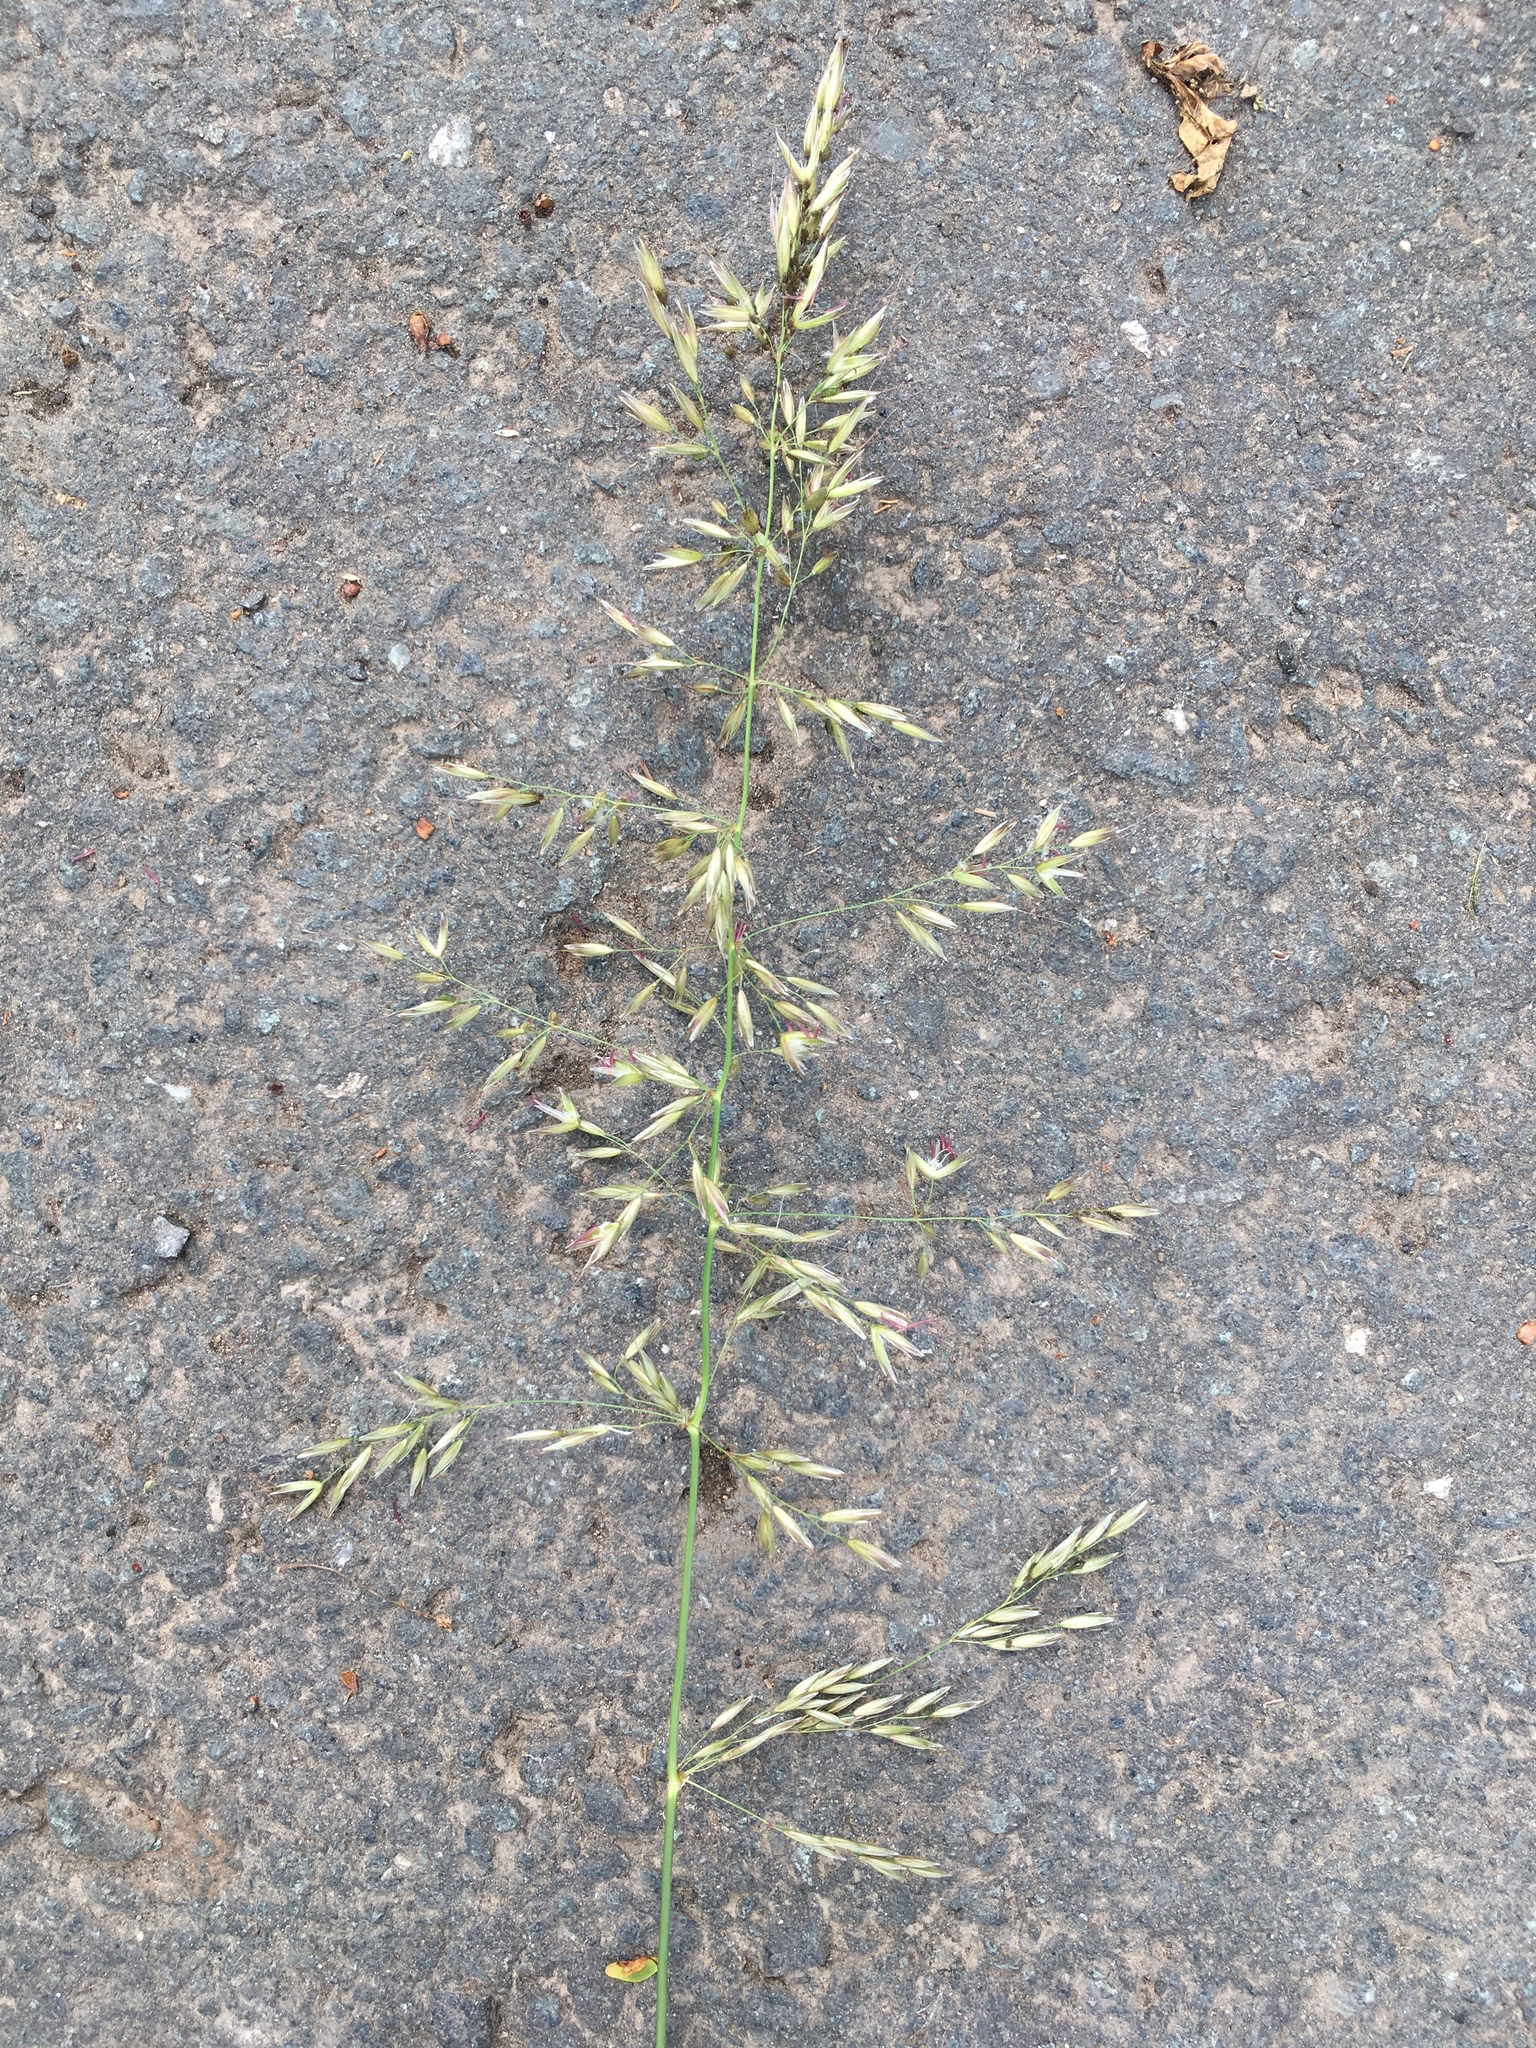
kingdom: Plantae
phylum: Tracheophyta
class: Liliopsida
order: Poales
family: Poaceae
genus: Arrhenatherum
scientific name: Arrhenatherum elatius
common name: Tall oatgrass
